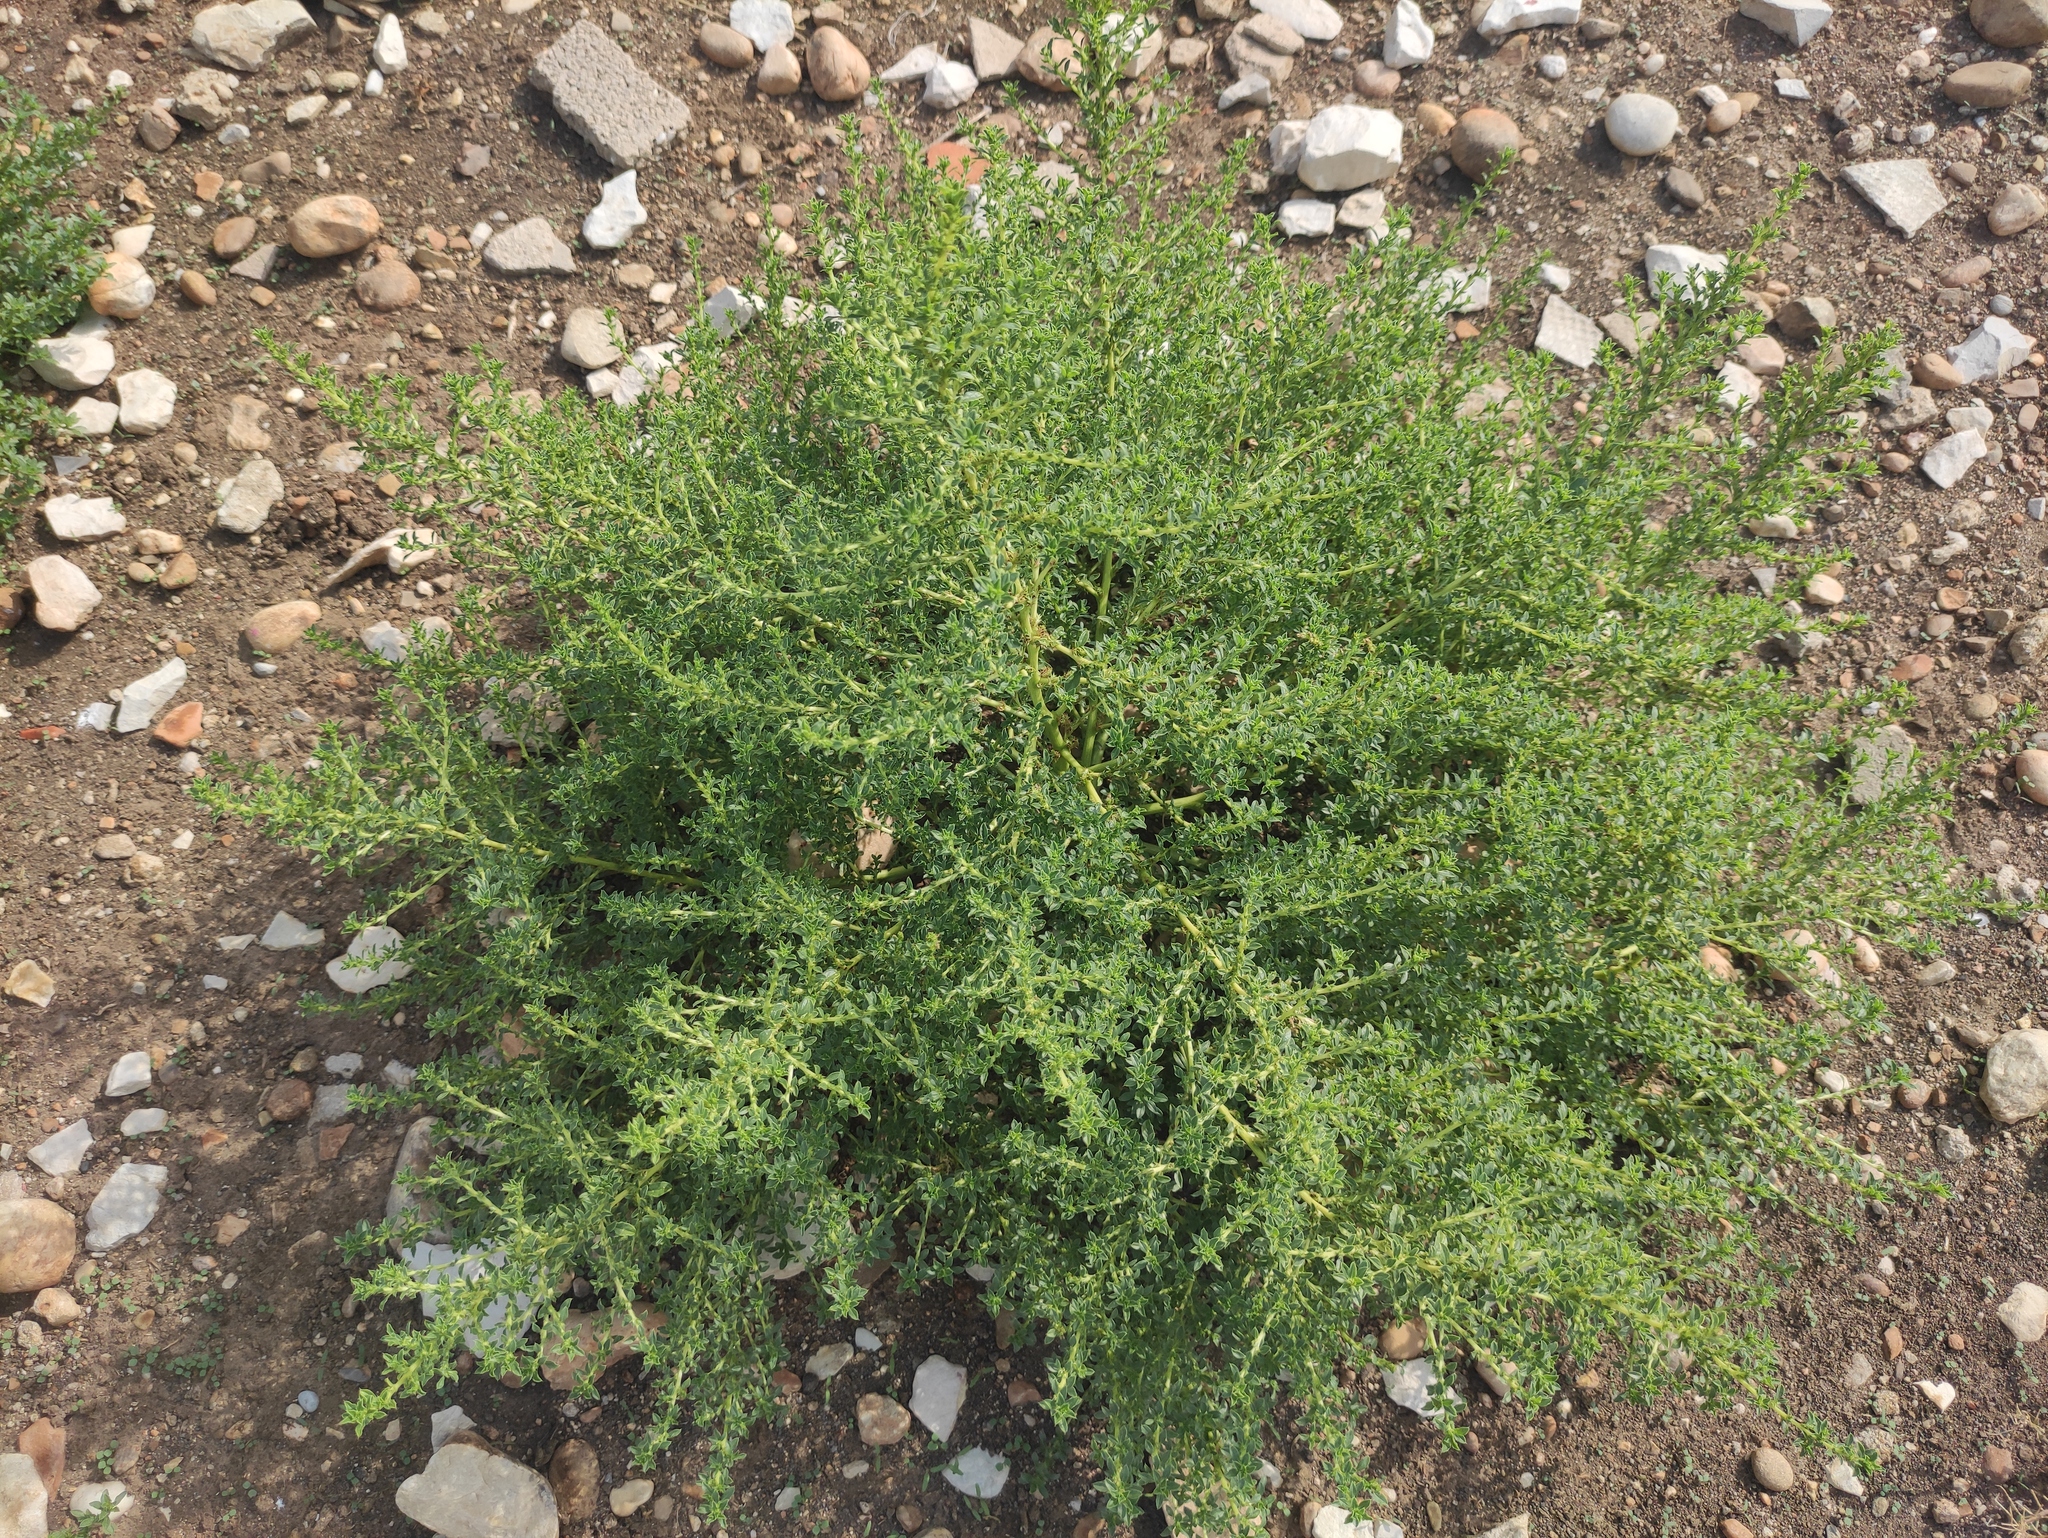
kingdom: Plantae
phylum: Tracheophyta
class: Magnoliopsida
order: Caryophyllales
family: Amaranthaceae
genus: Amaranthus
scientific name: Amaranthus albus
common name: White pigweed
